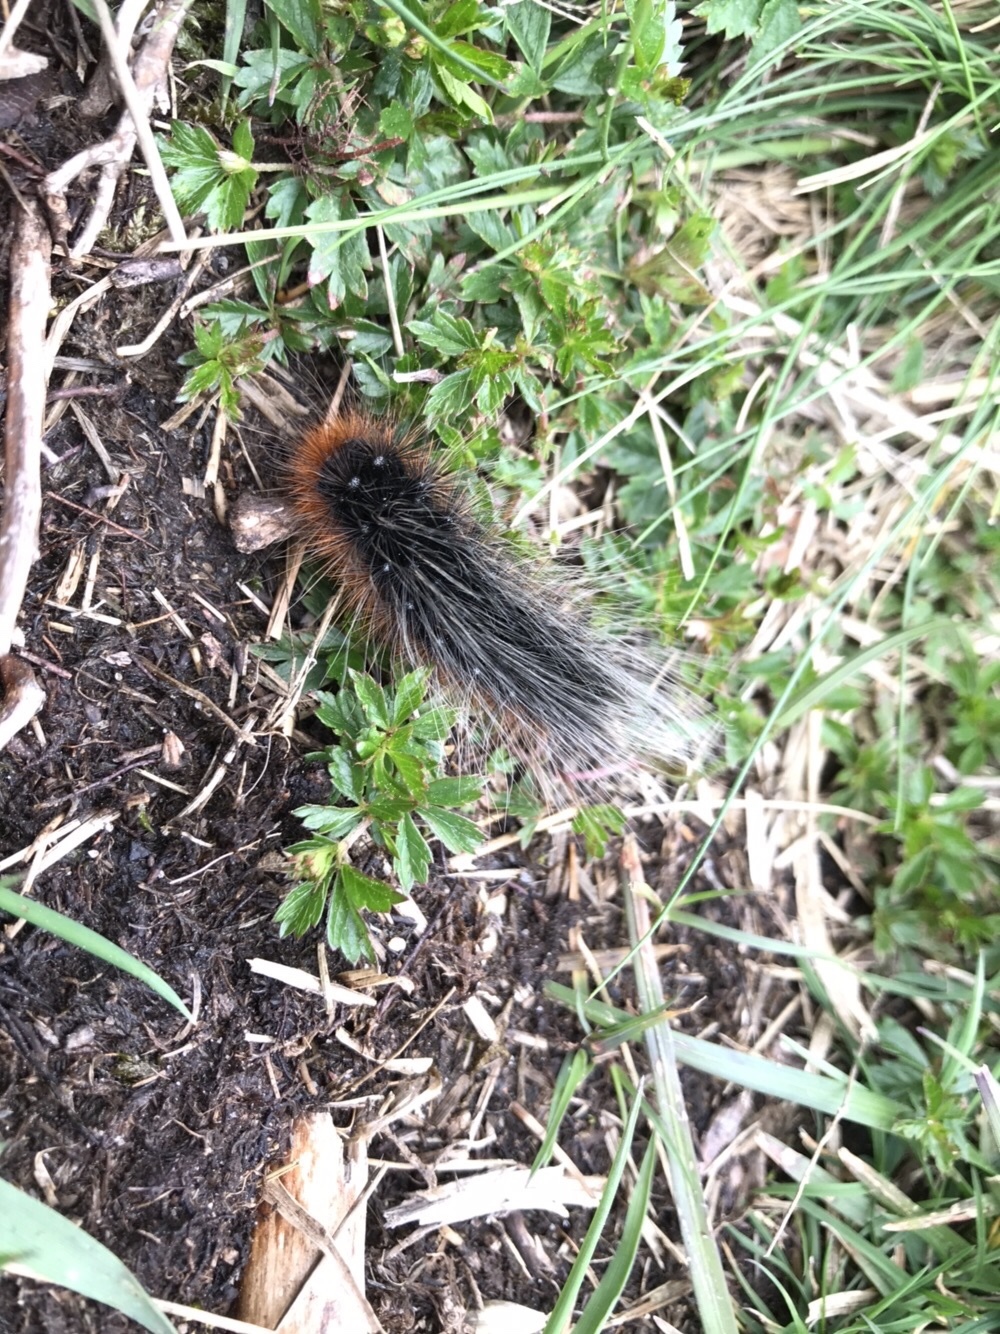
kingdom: Animalia
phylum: Arthropoda
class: Insecta
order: Lepidoptera
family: Erebidae
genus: Arctia
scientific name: Arctia caja
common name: Garden tiger
